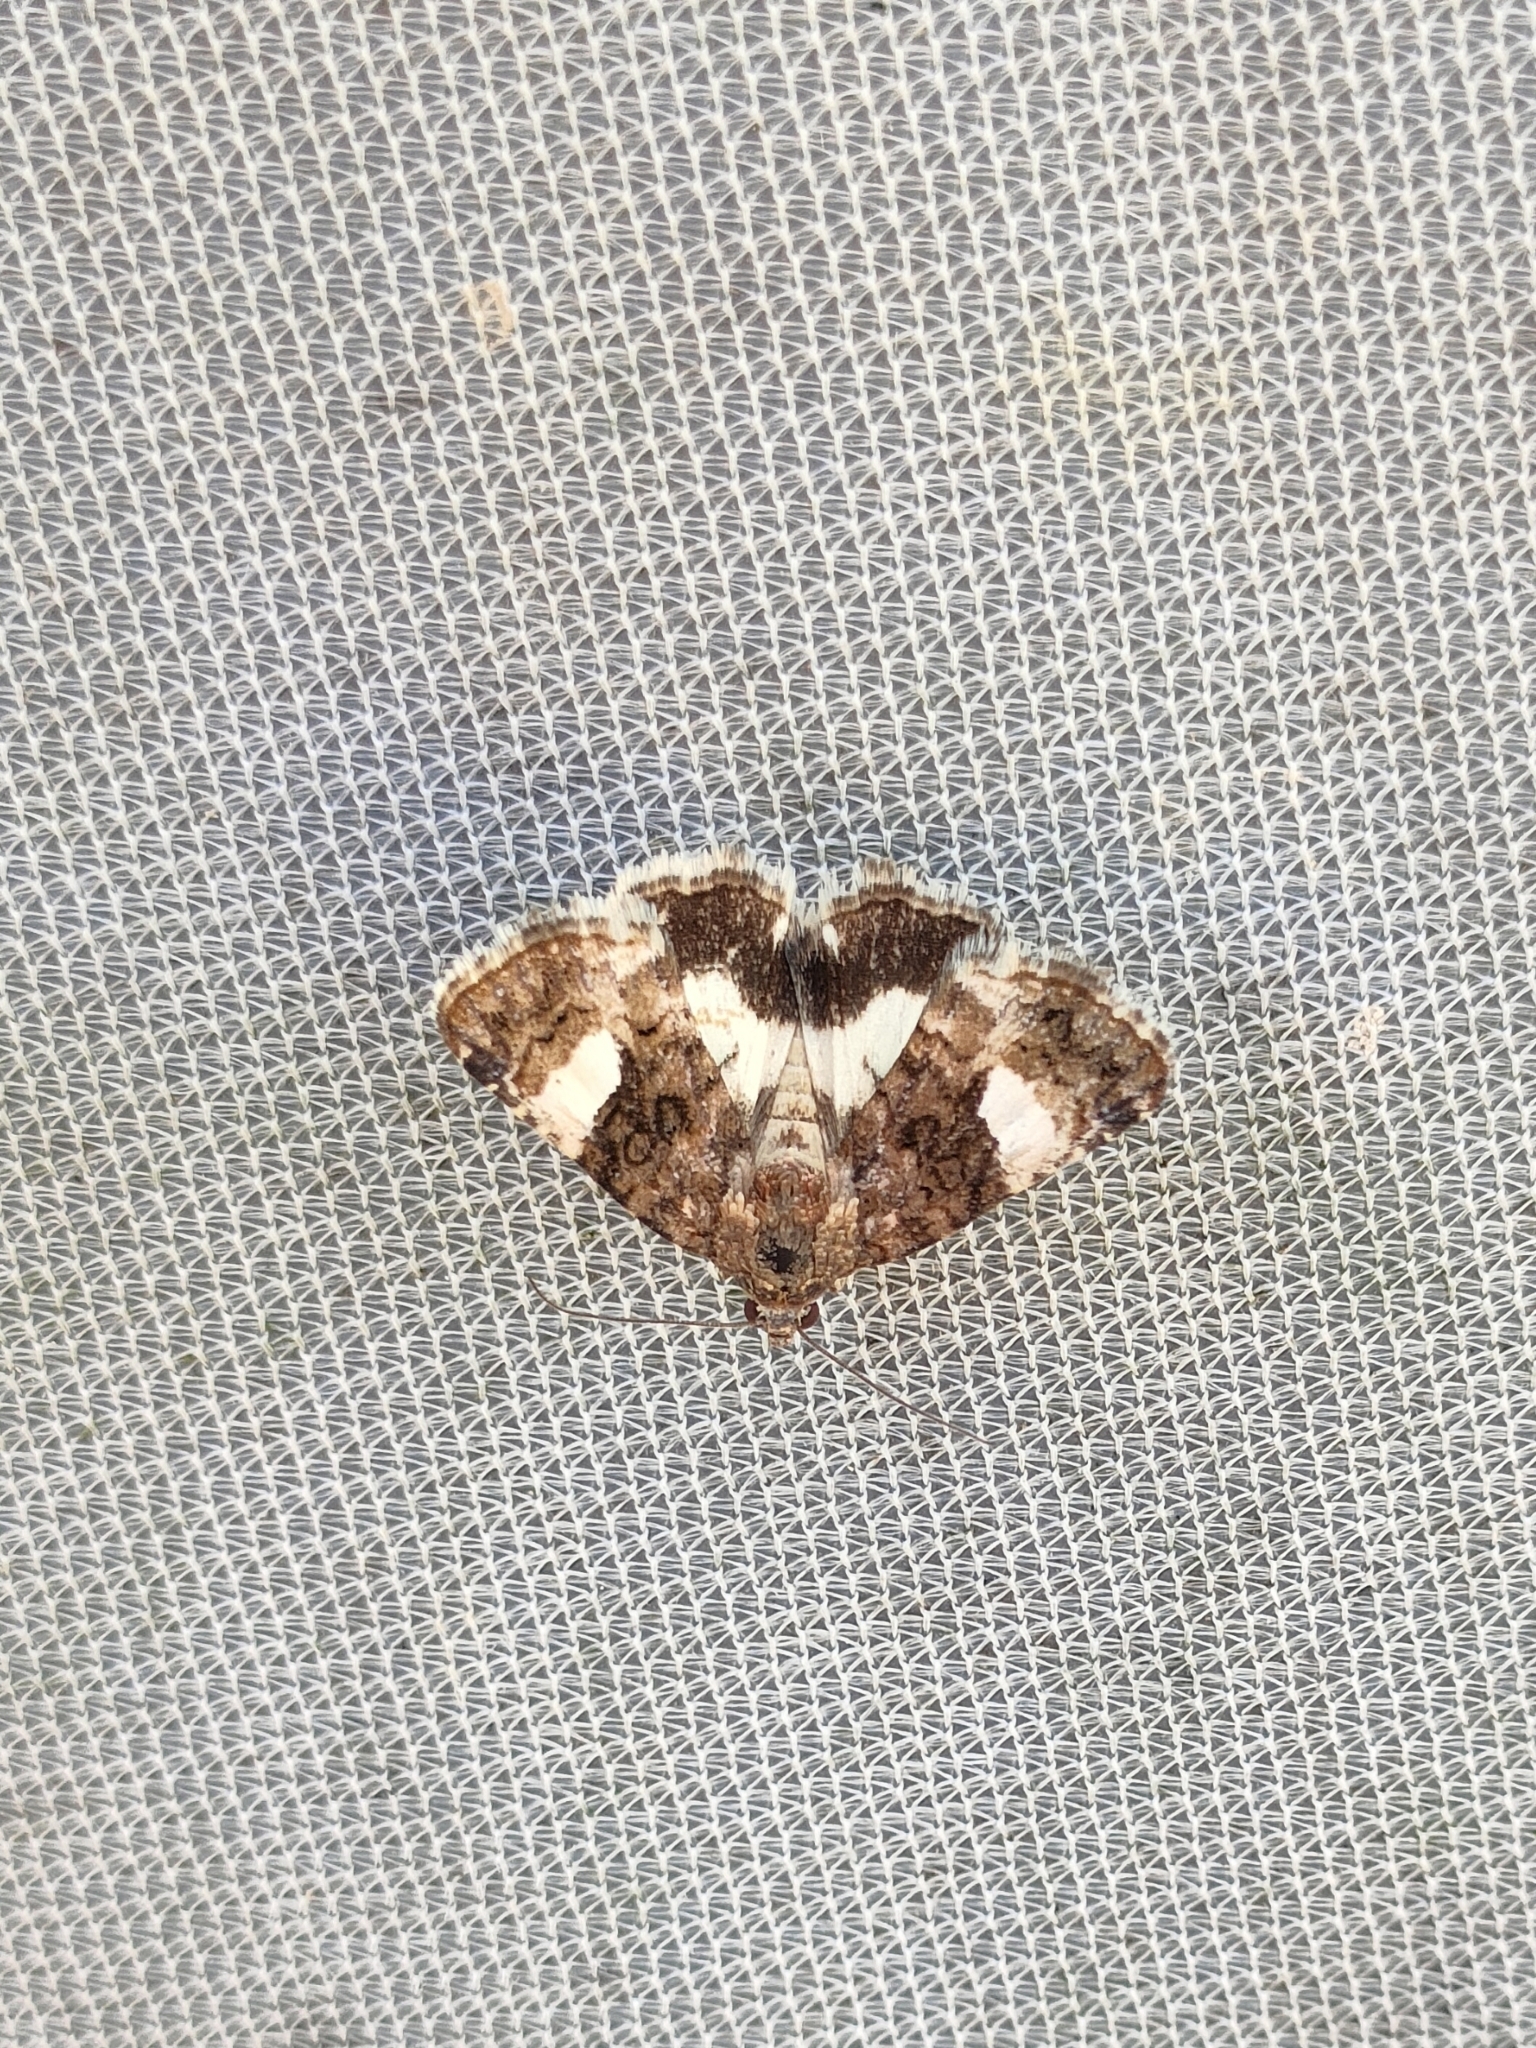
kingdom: Animalia
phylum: Arthropoda
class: Insecta
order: Lepidoptera
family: Erebidae
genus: Tyta
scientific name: Tyta luctuosa
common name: Four-spotted
